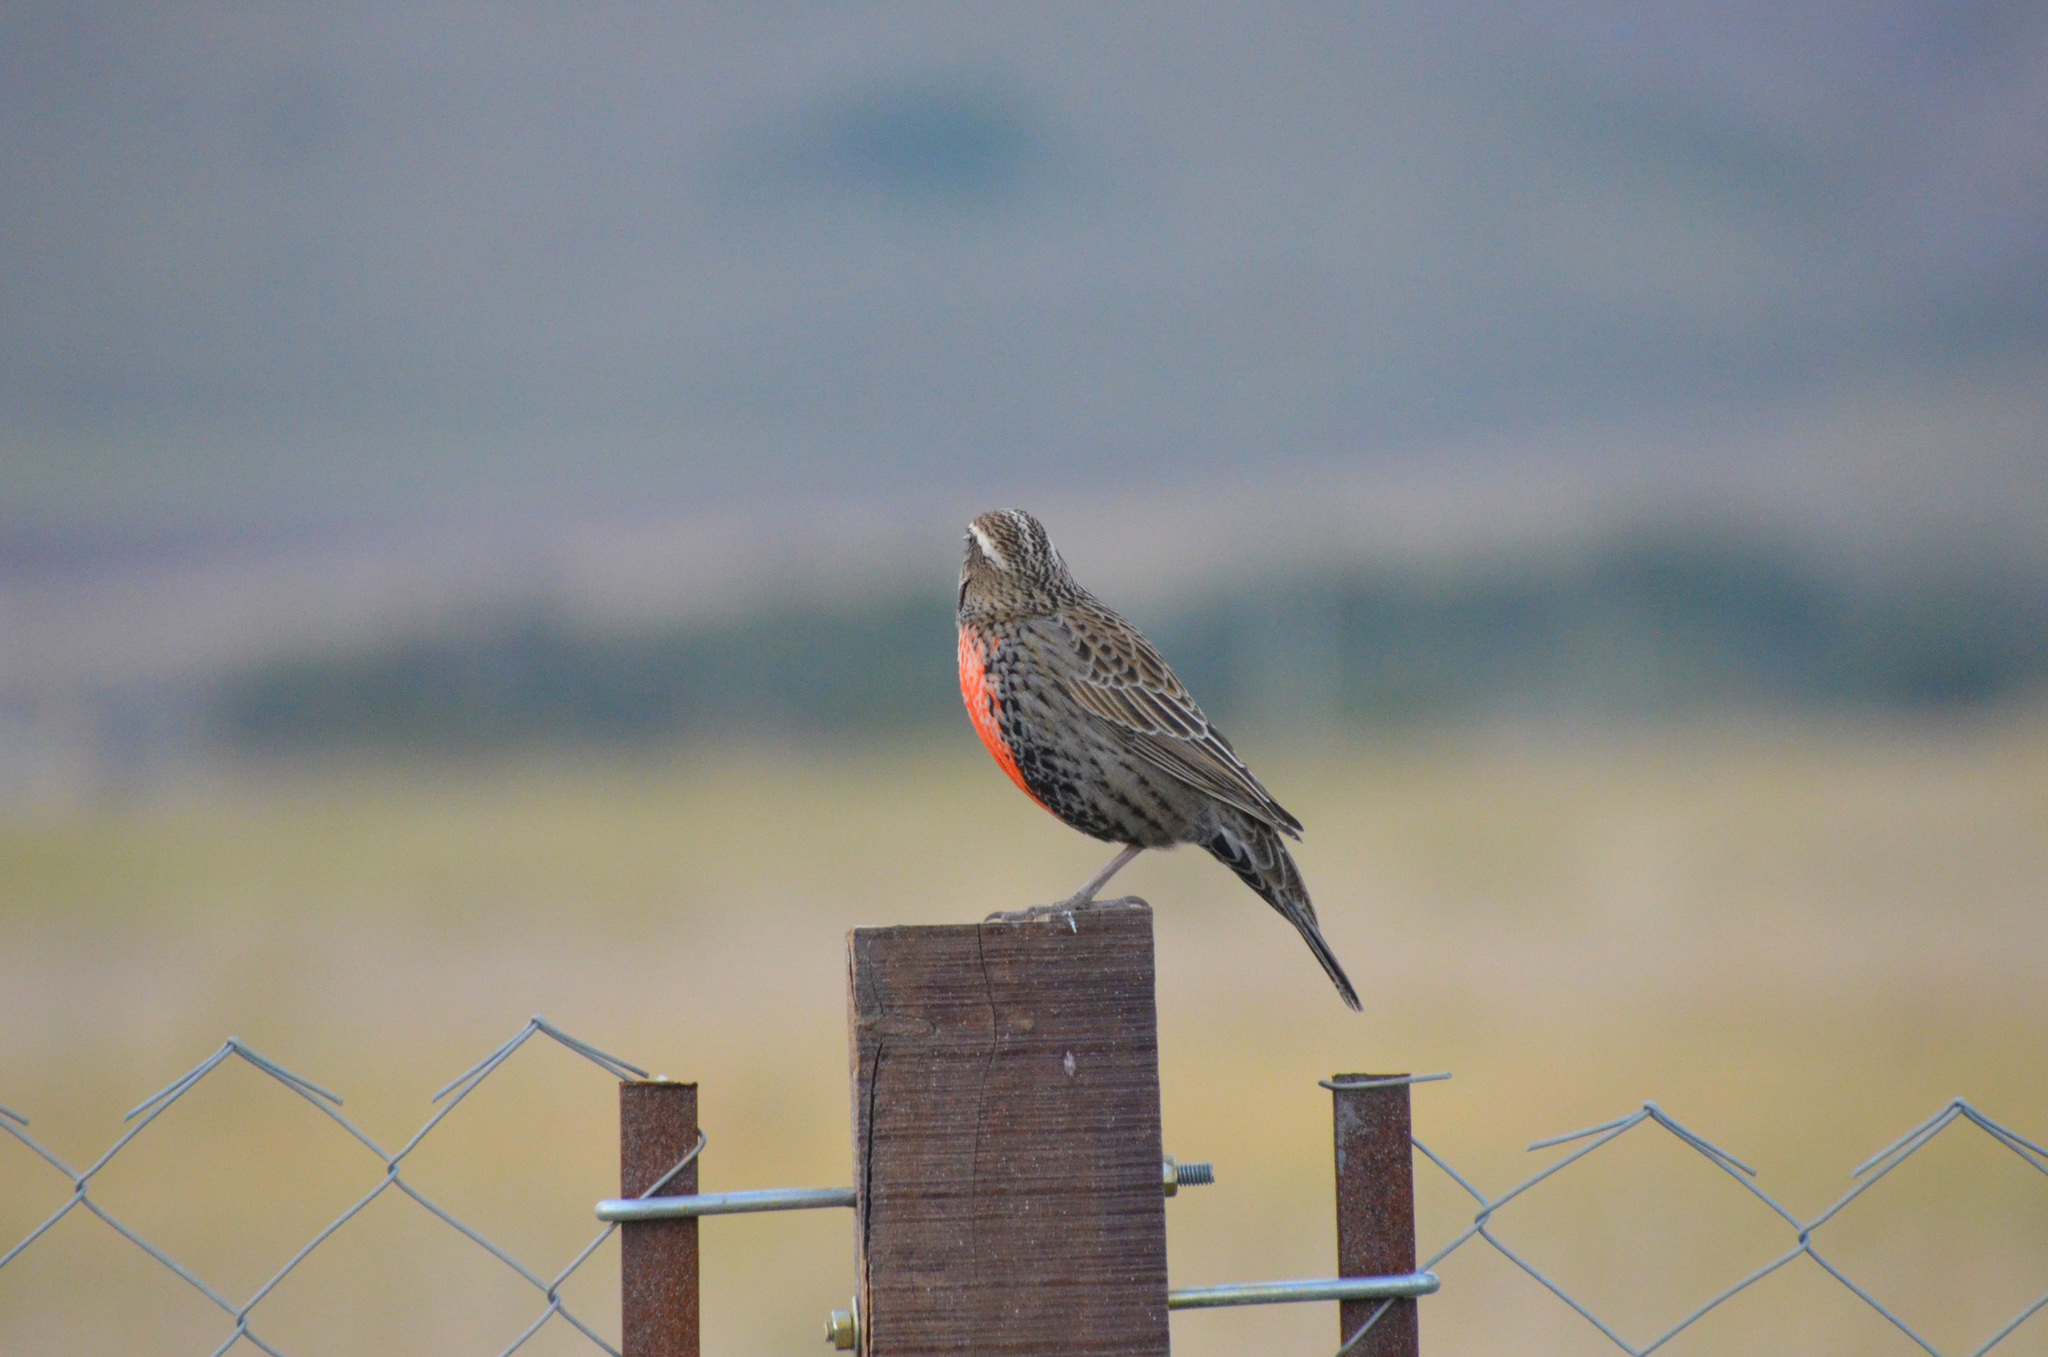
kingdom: Animalia
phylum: Chordata
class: Aves
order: Passeriformes
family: Icteridae
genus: Sturnella
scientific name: Sturnella loyca
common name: Long-tailed meadowlark
